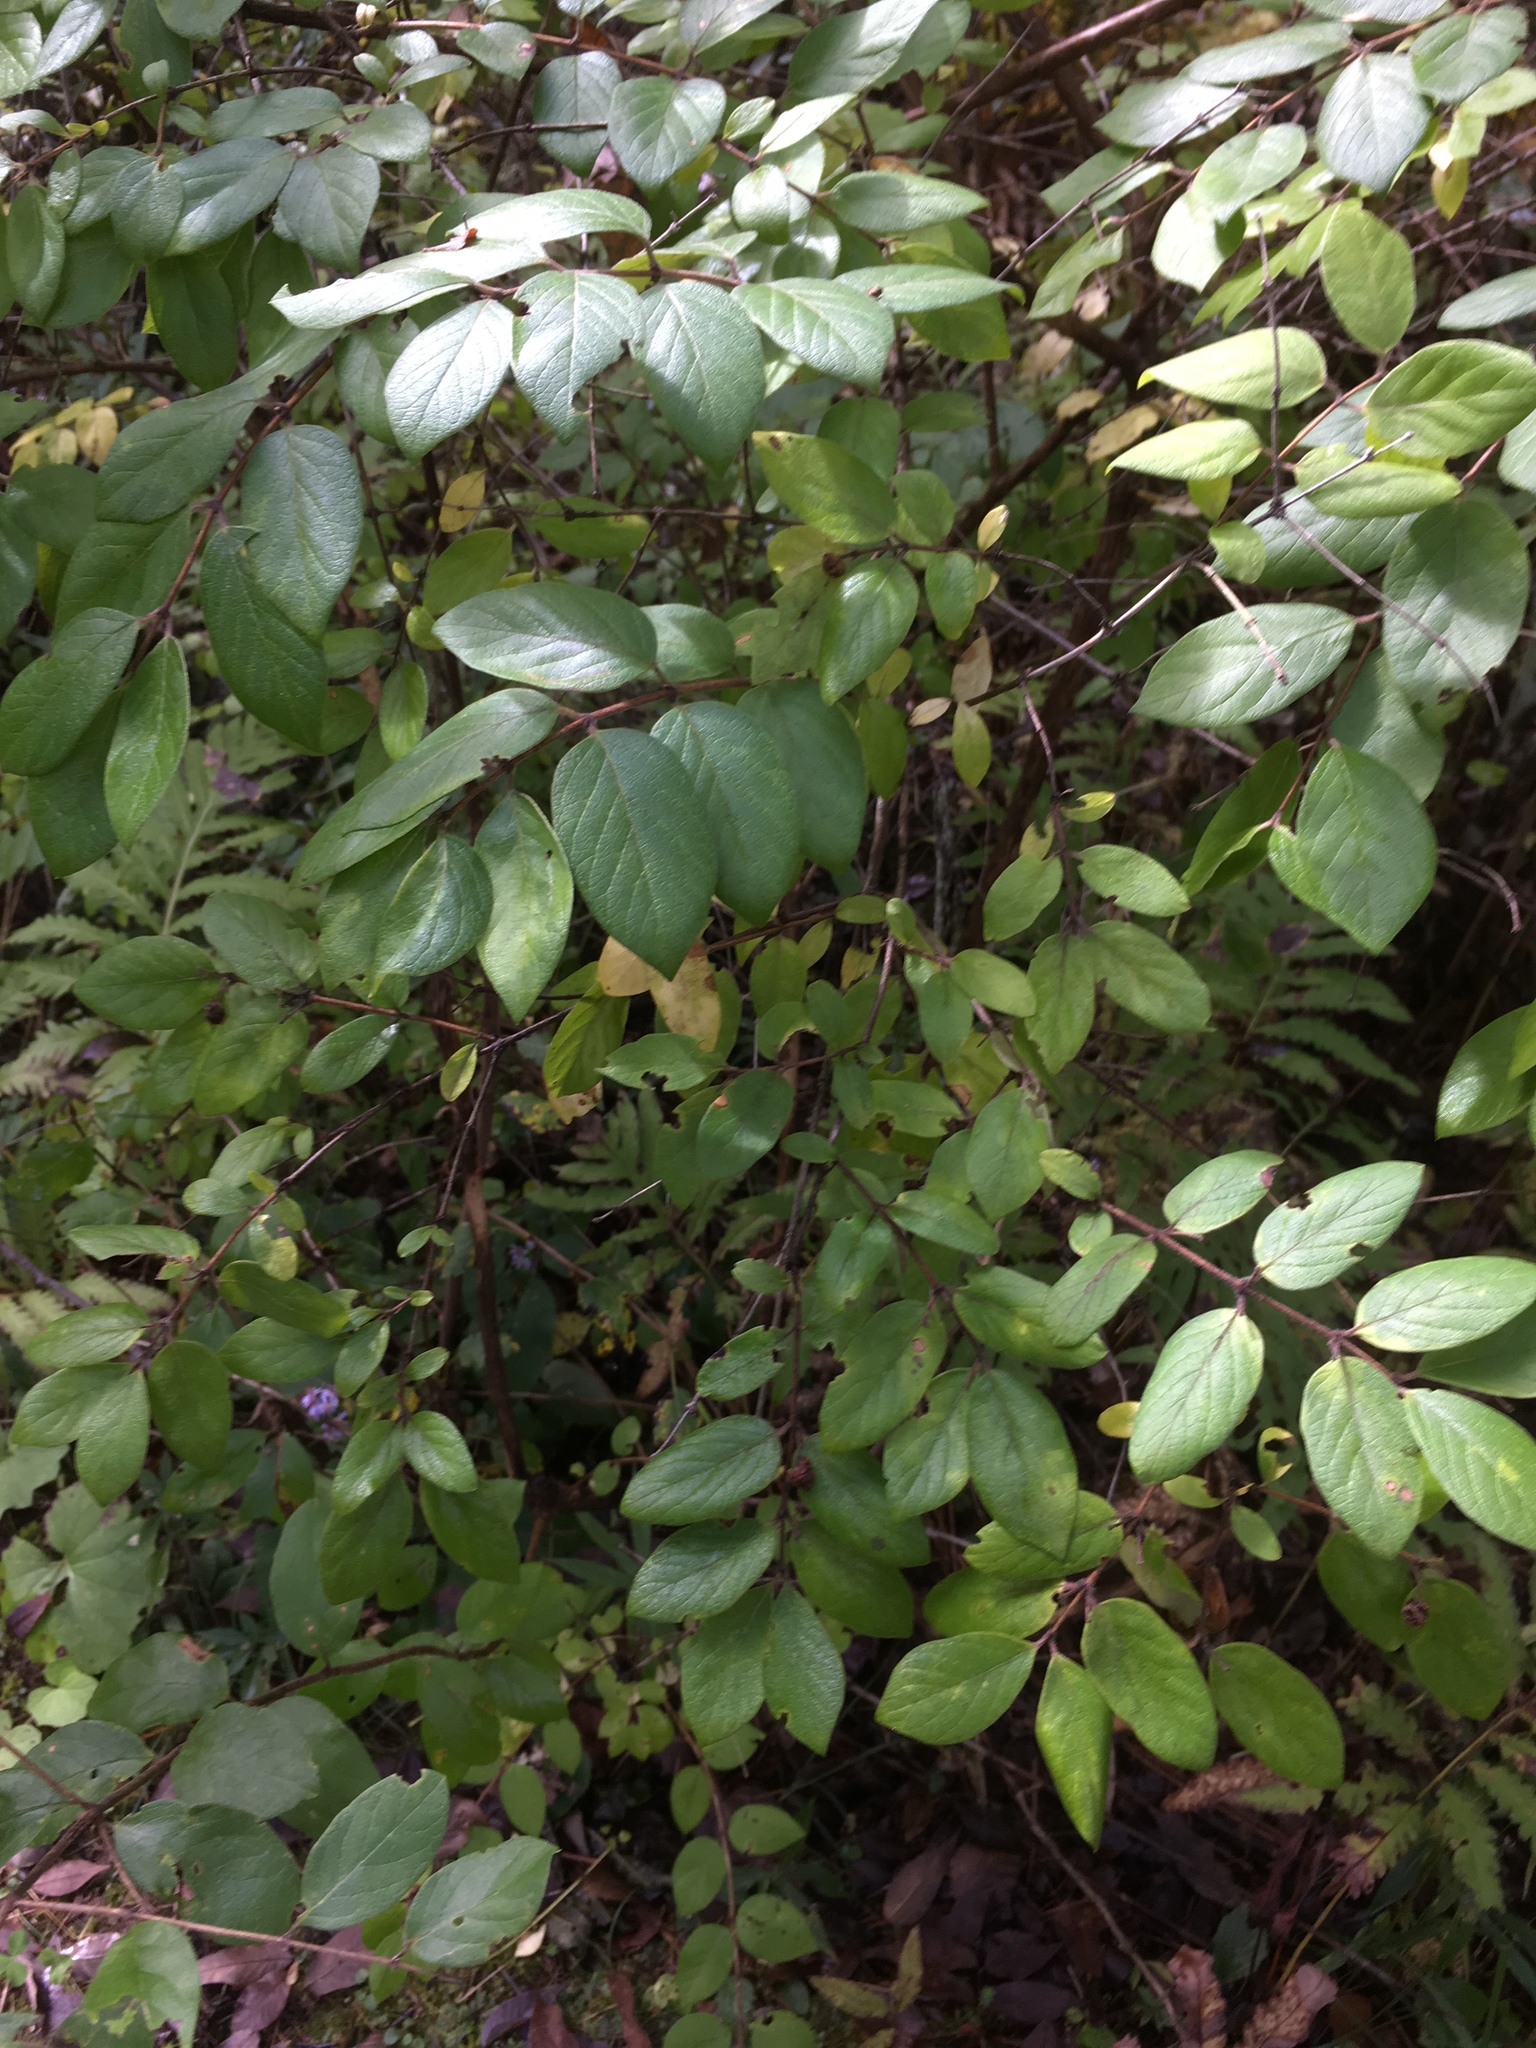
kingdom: Plantae
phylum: Tracheophyta
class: Magnoliopsida
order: Dipsacales
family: Caprifoliaceae
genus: Lonicera
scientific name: Lonicera
